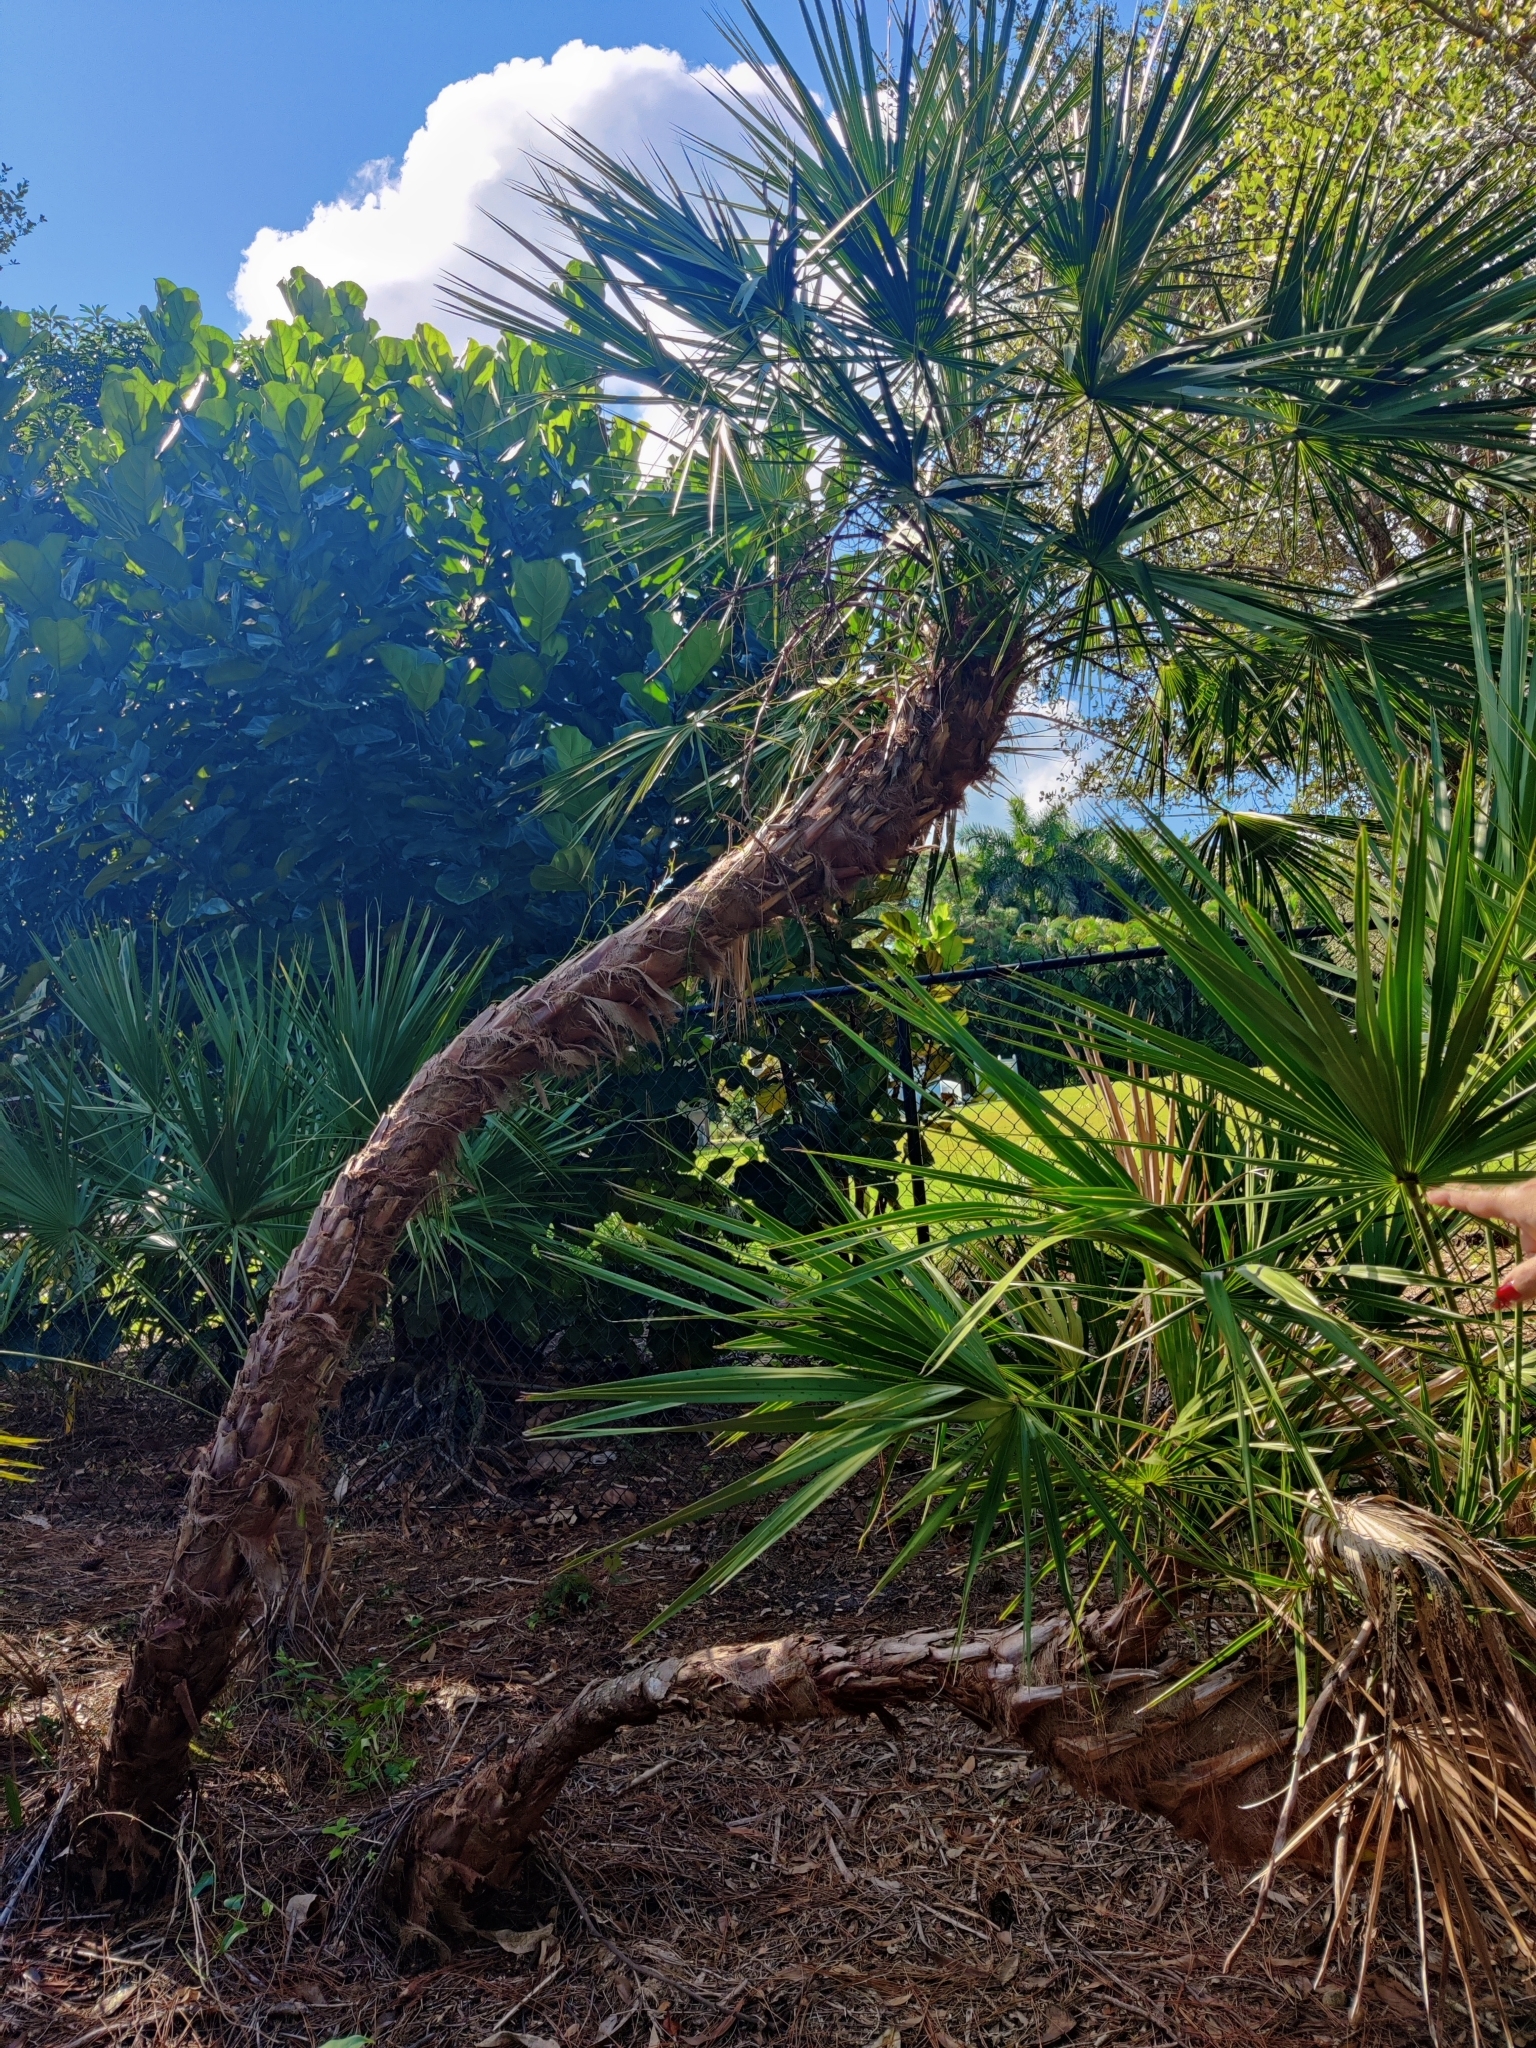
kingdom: Plantae
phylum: Tracheophyta
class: Liliopsida
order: Arecales
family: Arecaceae
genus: Serenoa
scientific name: Serenoa repens
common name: Saw-palmetto
